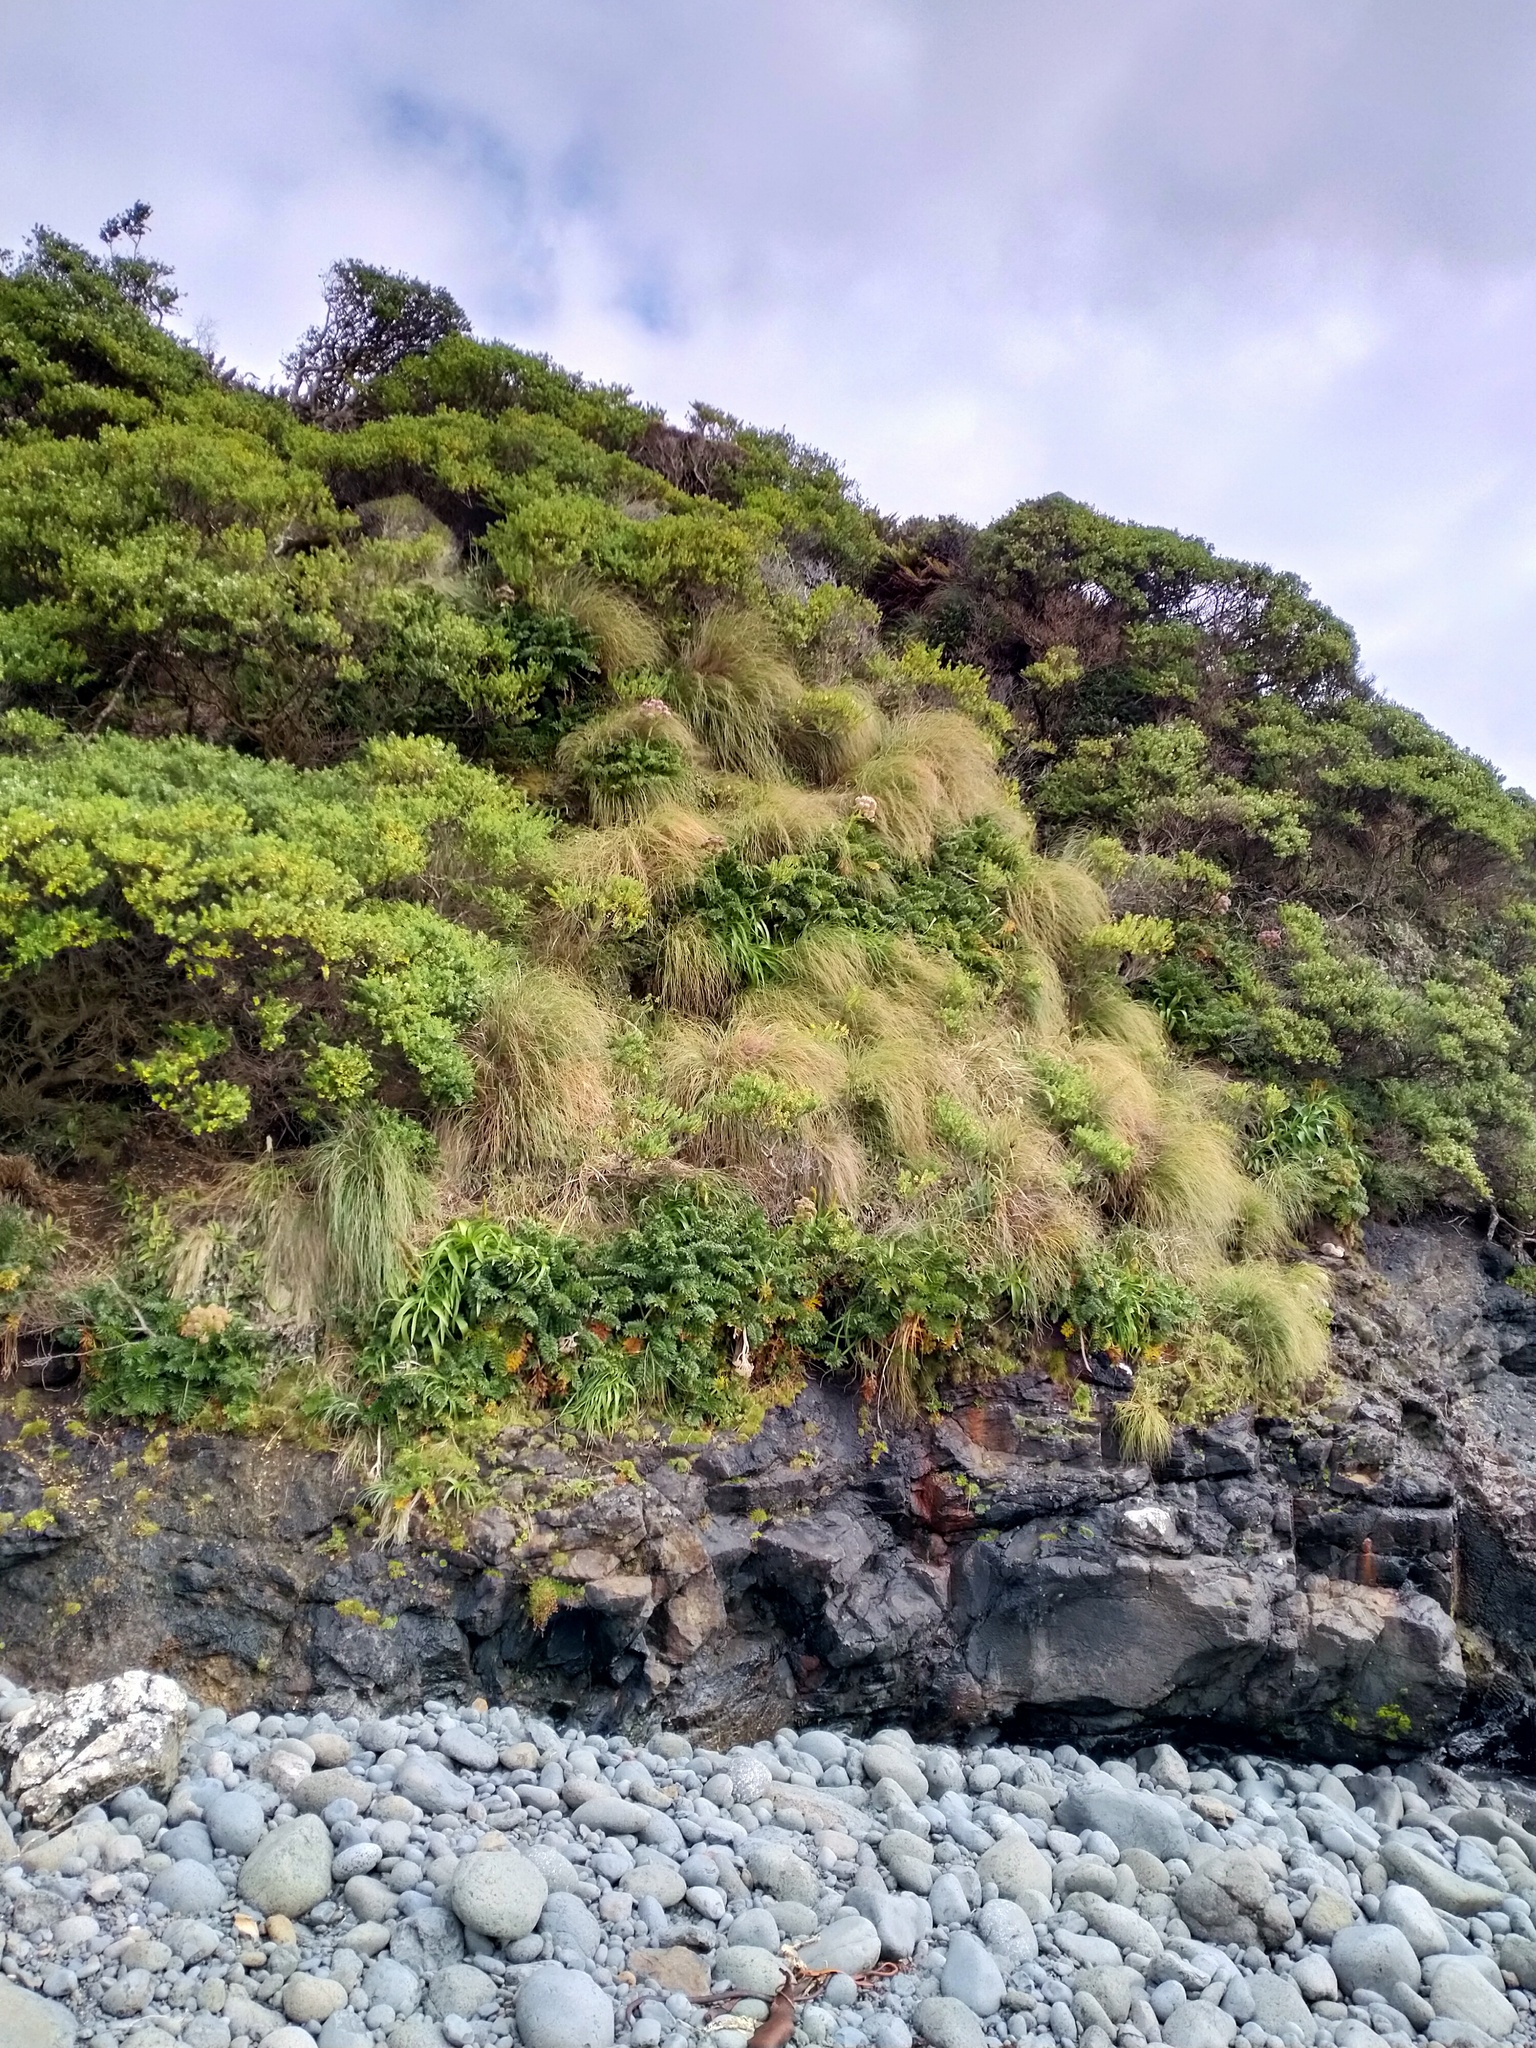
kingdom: Plantae
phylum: Tracheophyta
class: Liliopsida
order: Poales
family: Poaceae
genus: Poa
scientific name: Poa litorosa
